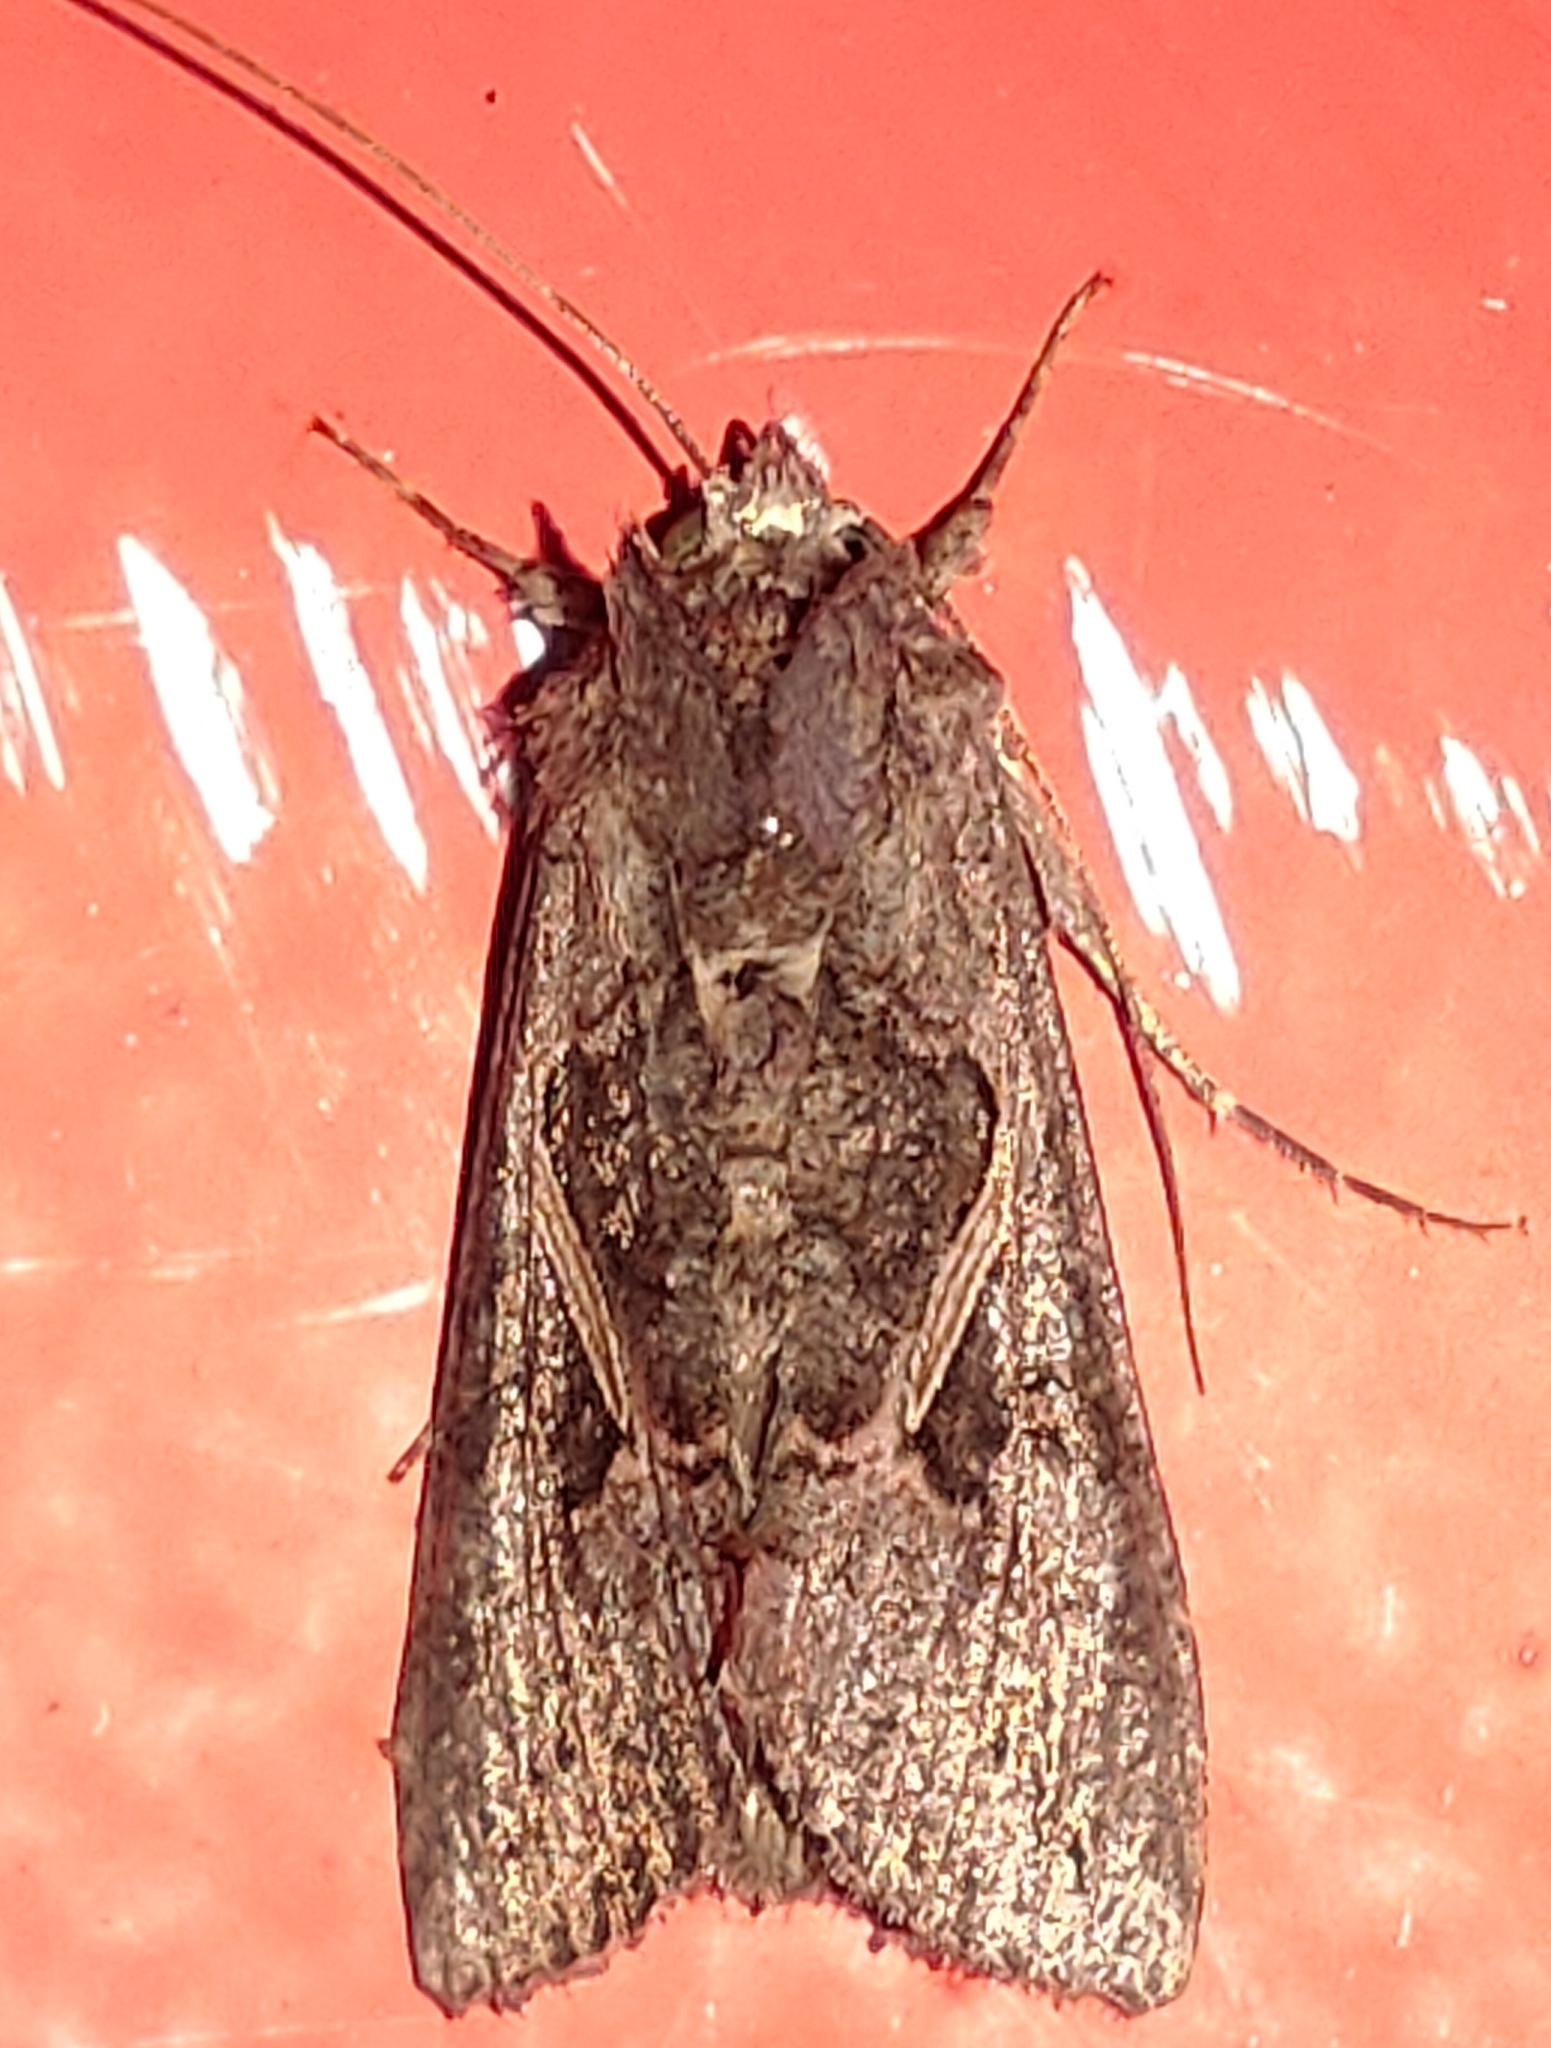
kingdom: Animalia
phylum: Arthropoda
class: Insecta
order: Lepidoptera
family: Noctuidae
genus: Ctenoplusia
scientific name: Ctenoplusia albostriata
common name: Moth
